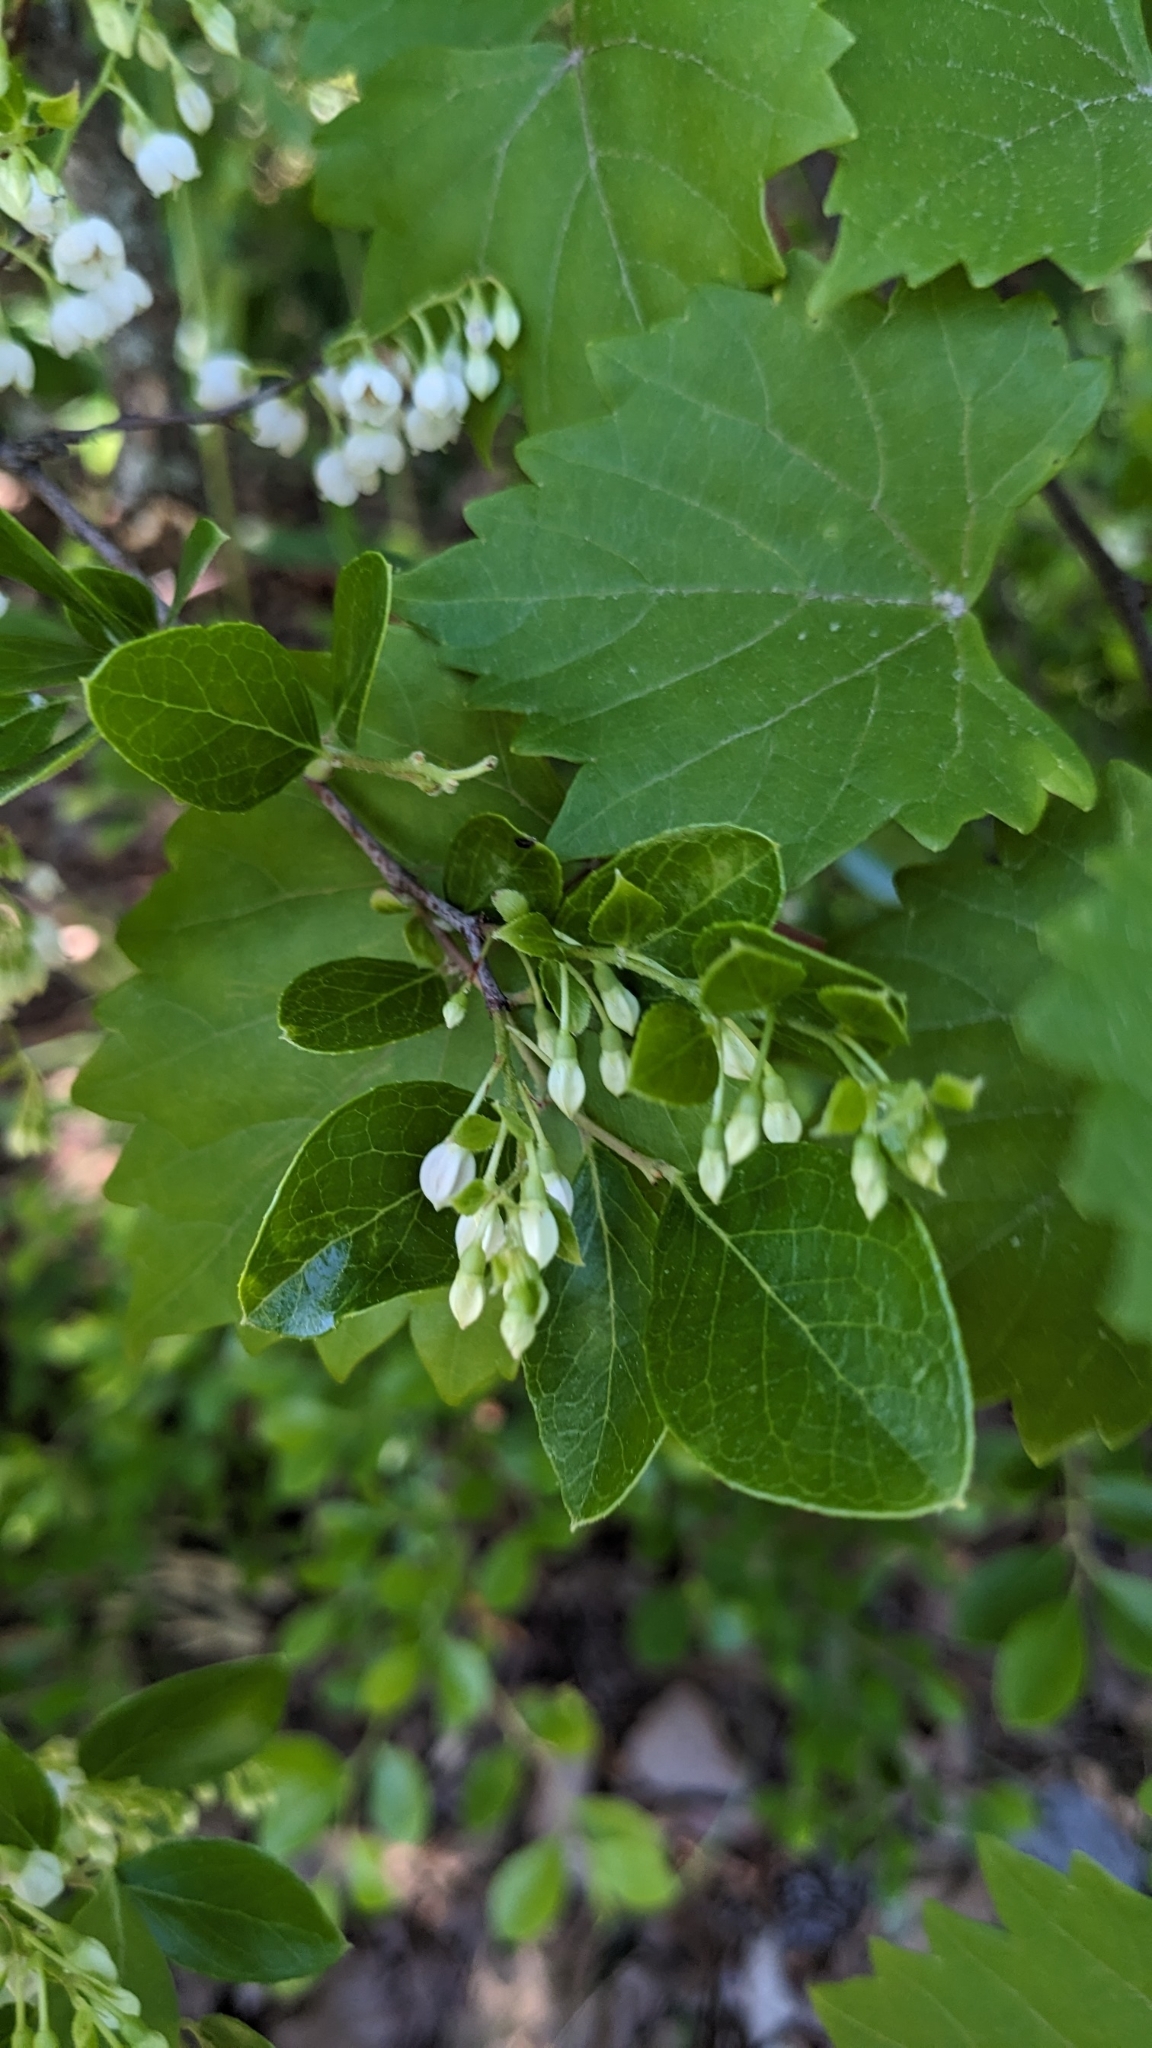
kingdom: Plantae
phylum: Tracheophyta
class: Magnoliopsida
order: Ericales
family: Ericaceae
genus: Vaccinium
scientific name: Vaccinium arboreum
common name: Farkleberry
